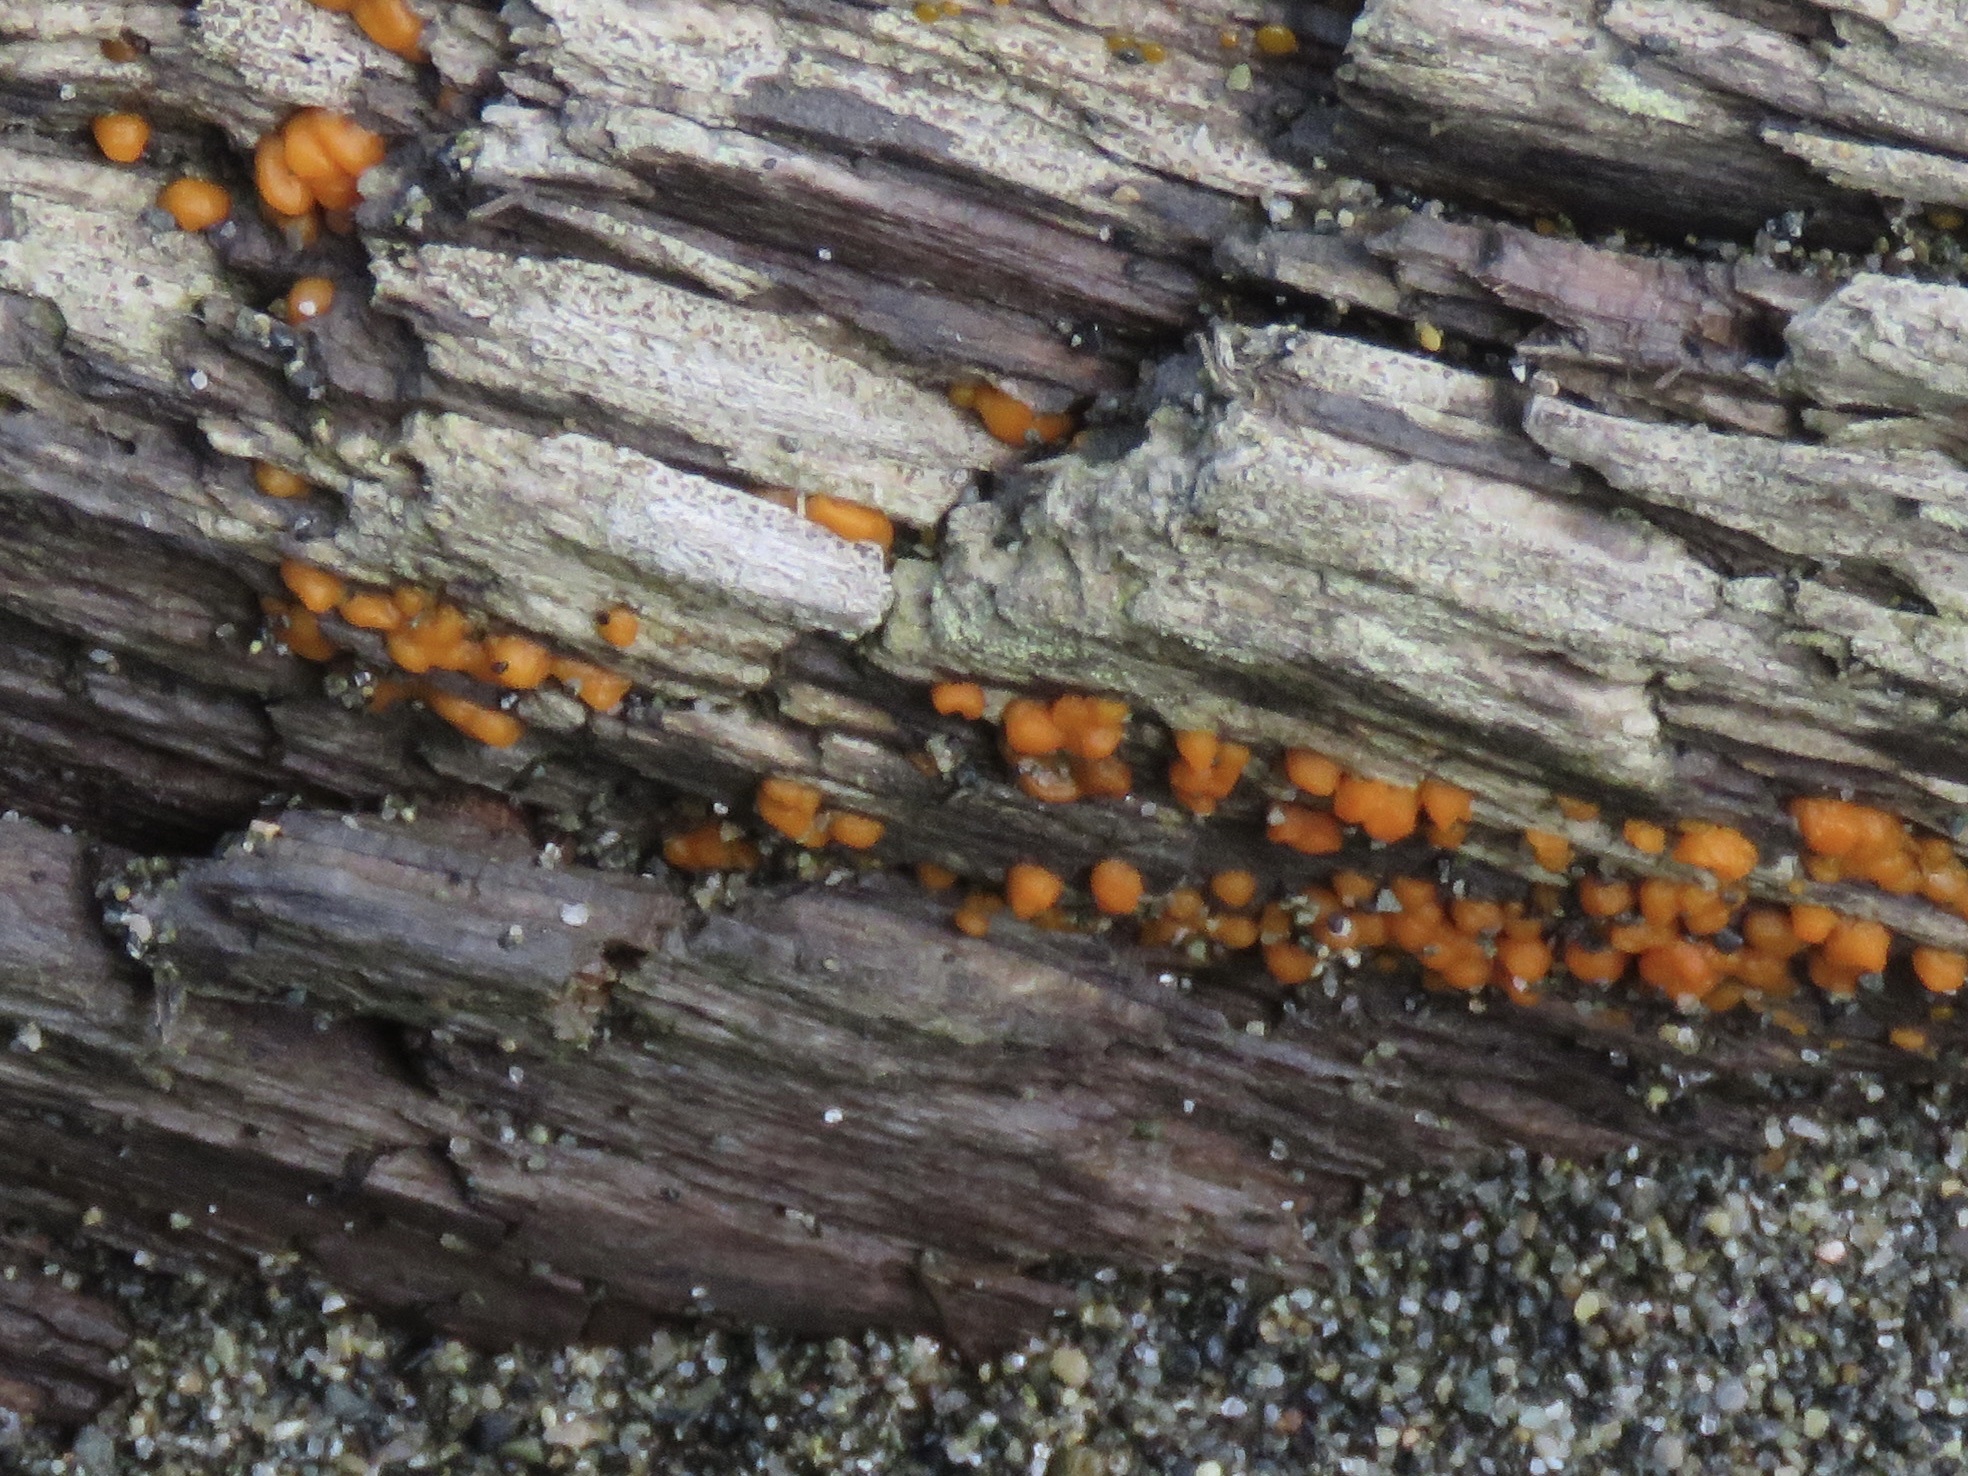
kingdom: Fungi
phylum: Basidiomycota
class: Dacrymycetes
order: Dacrymycetales
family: Dacrymycetaceae
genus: Dacrymyces
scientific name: Dacrymyces stillatus
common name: Common jelly spot
